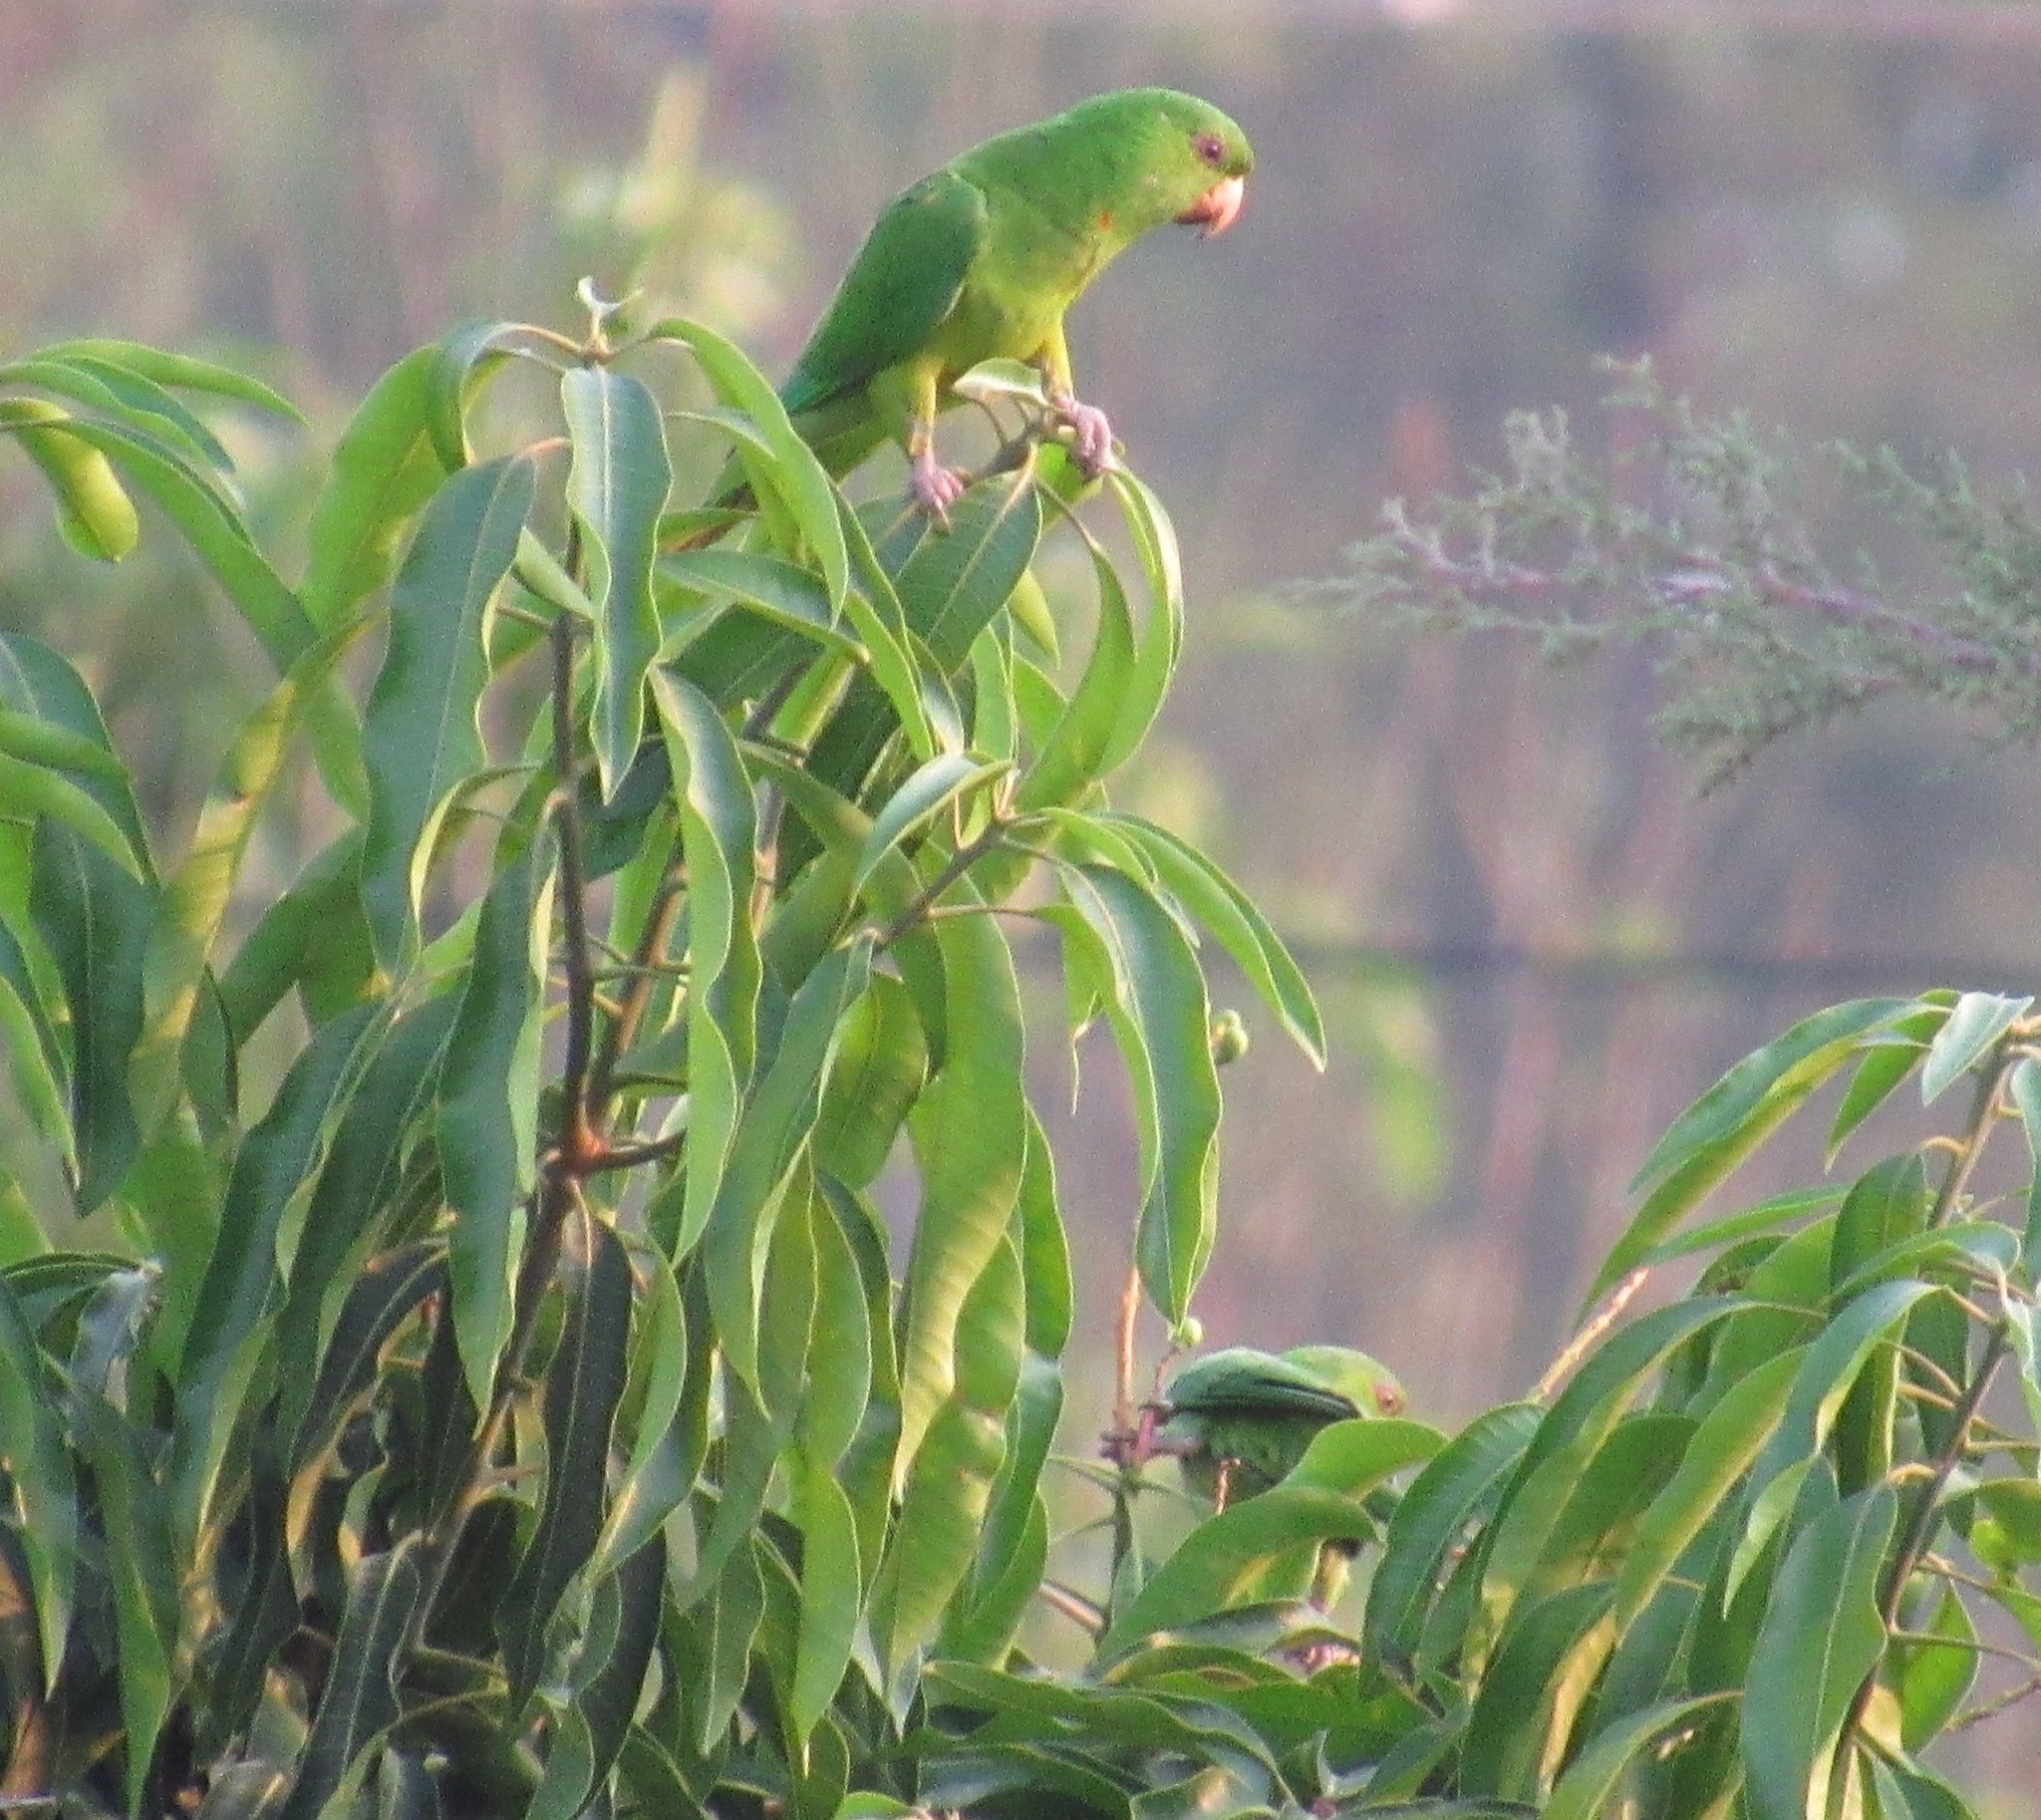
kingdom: Animalia
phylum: Chordata
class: Aves
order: Psittaciformes
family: Psittacidae
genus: Aratinga
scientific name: Aratinga holochlora
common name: Green parakeet
